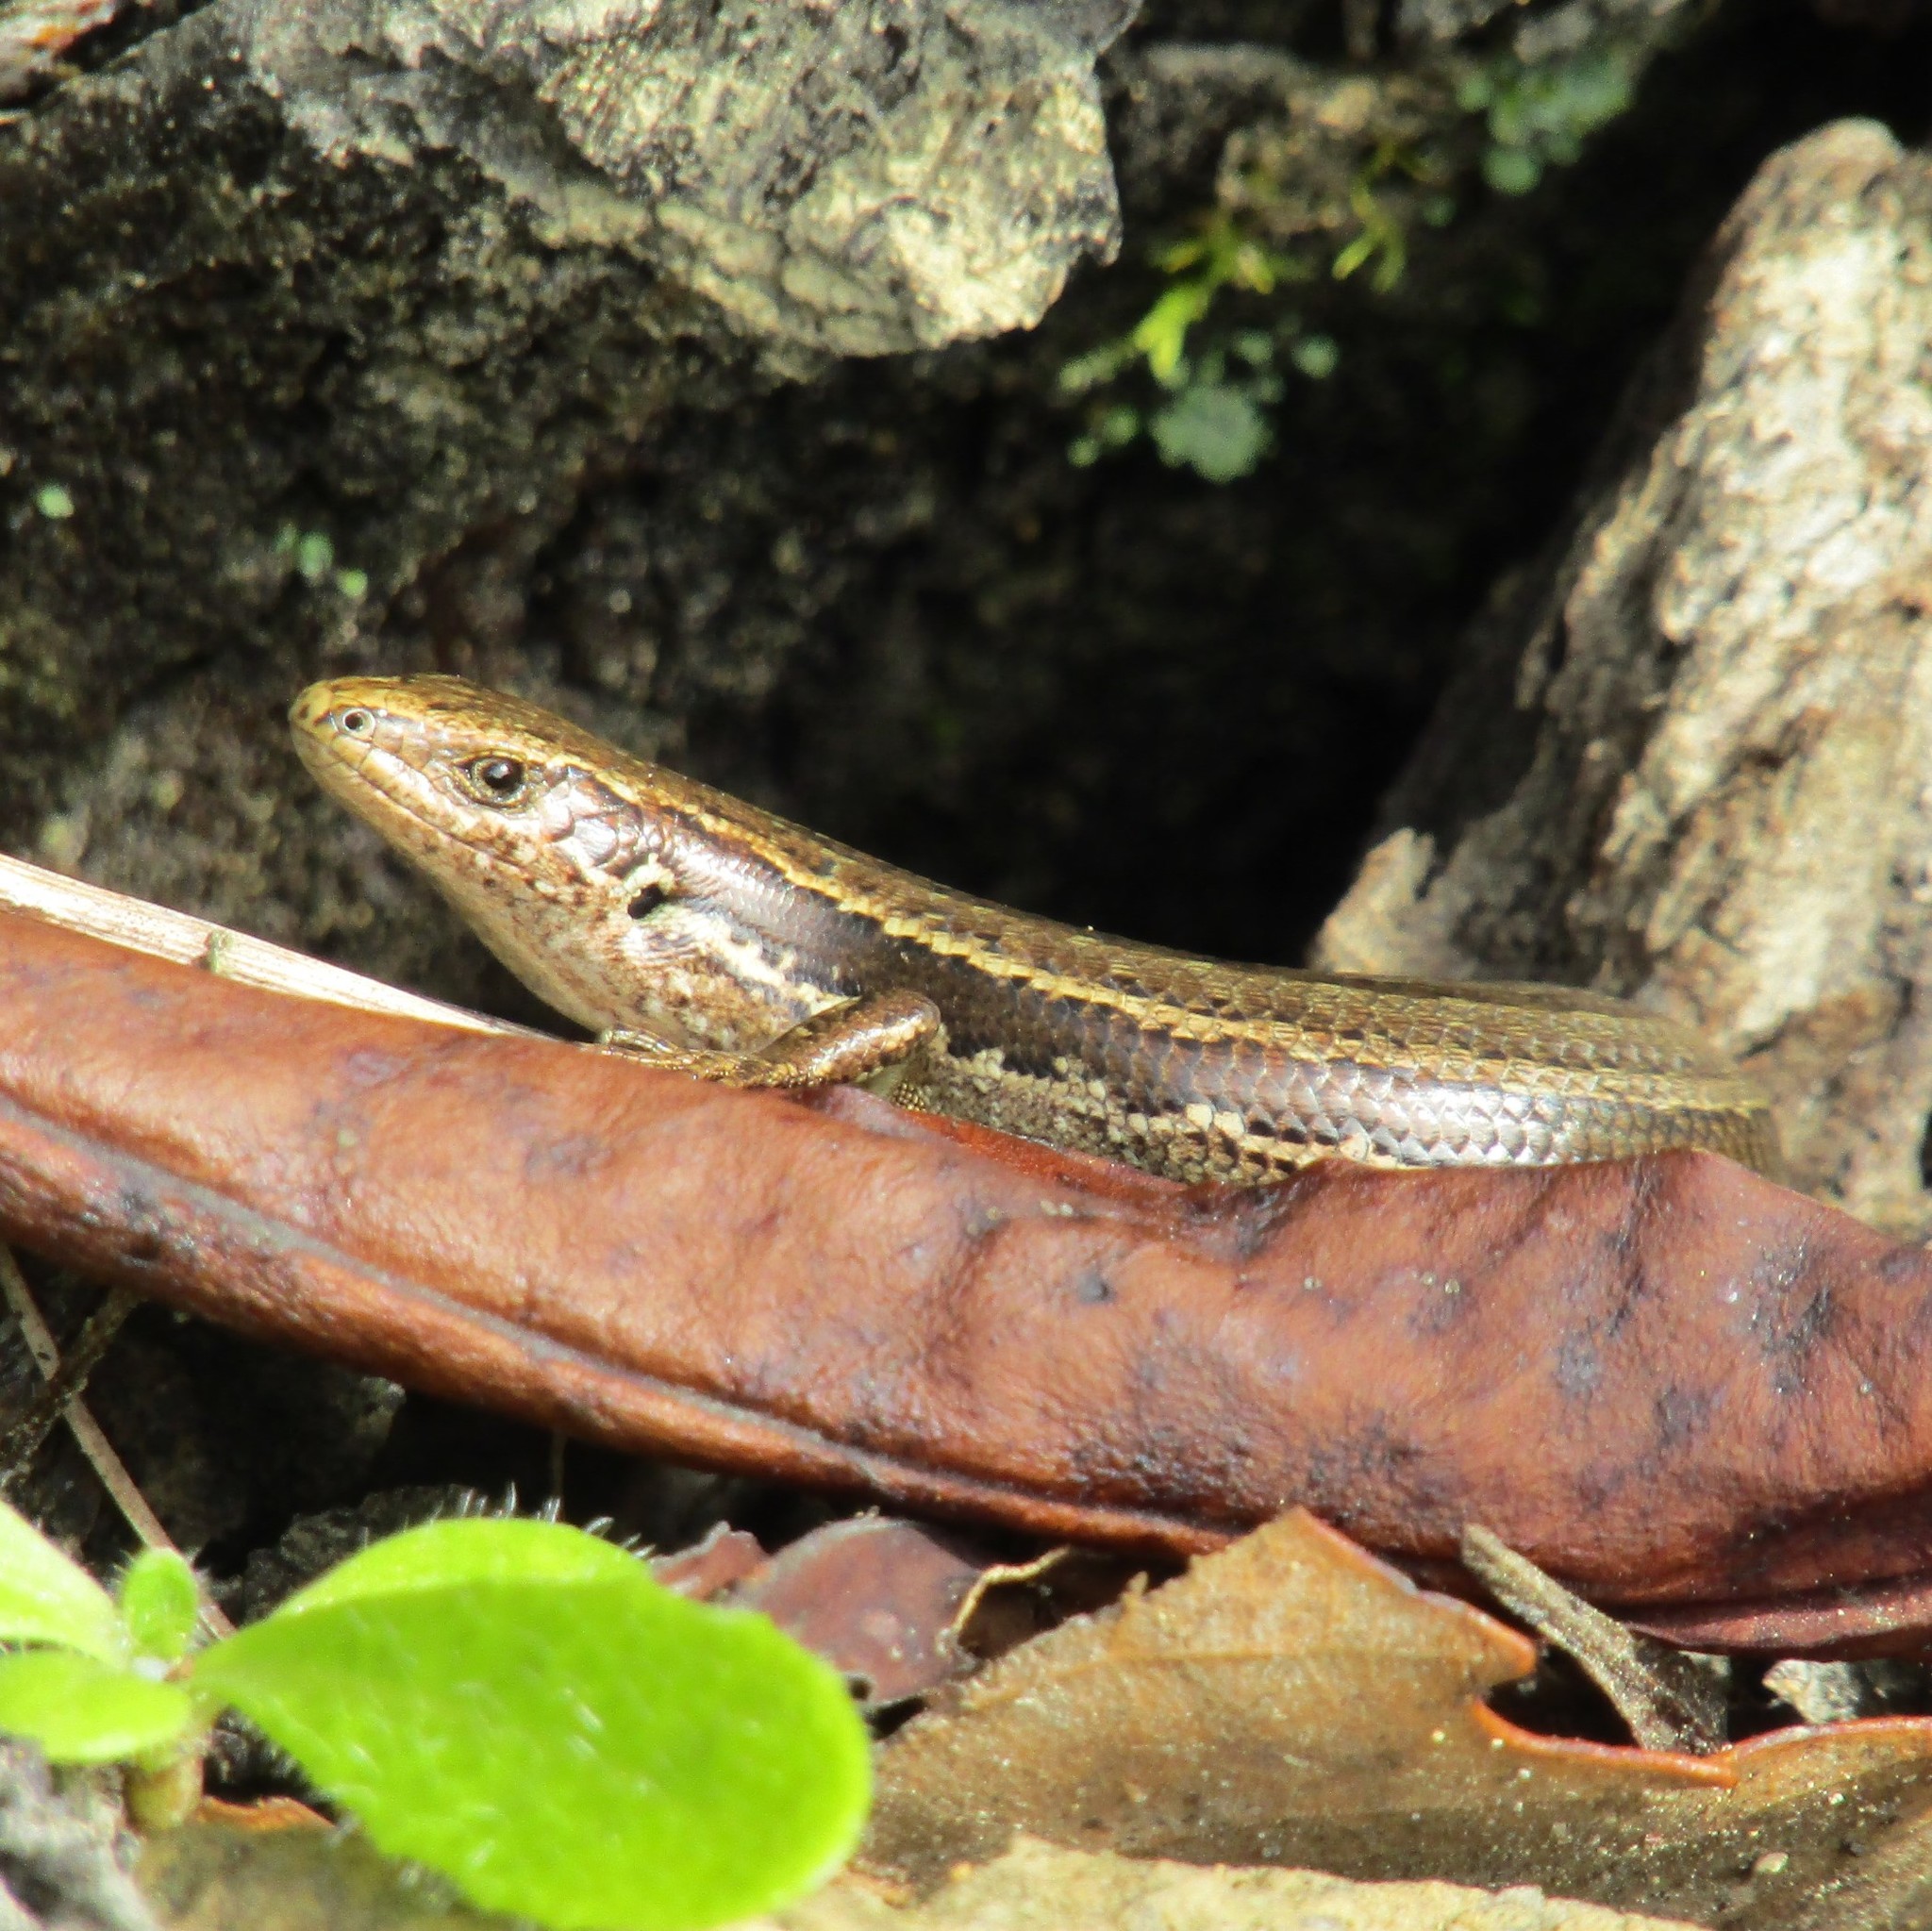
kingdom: Animalia
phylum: Chordata
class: Squamata
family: Scincidae
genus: Oligosoma
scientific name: Oligosoma polychroma
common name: Common new zealand skink
